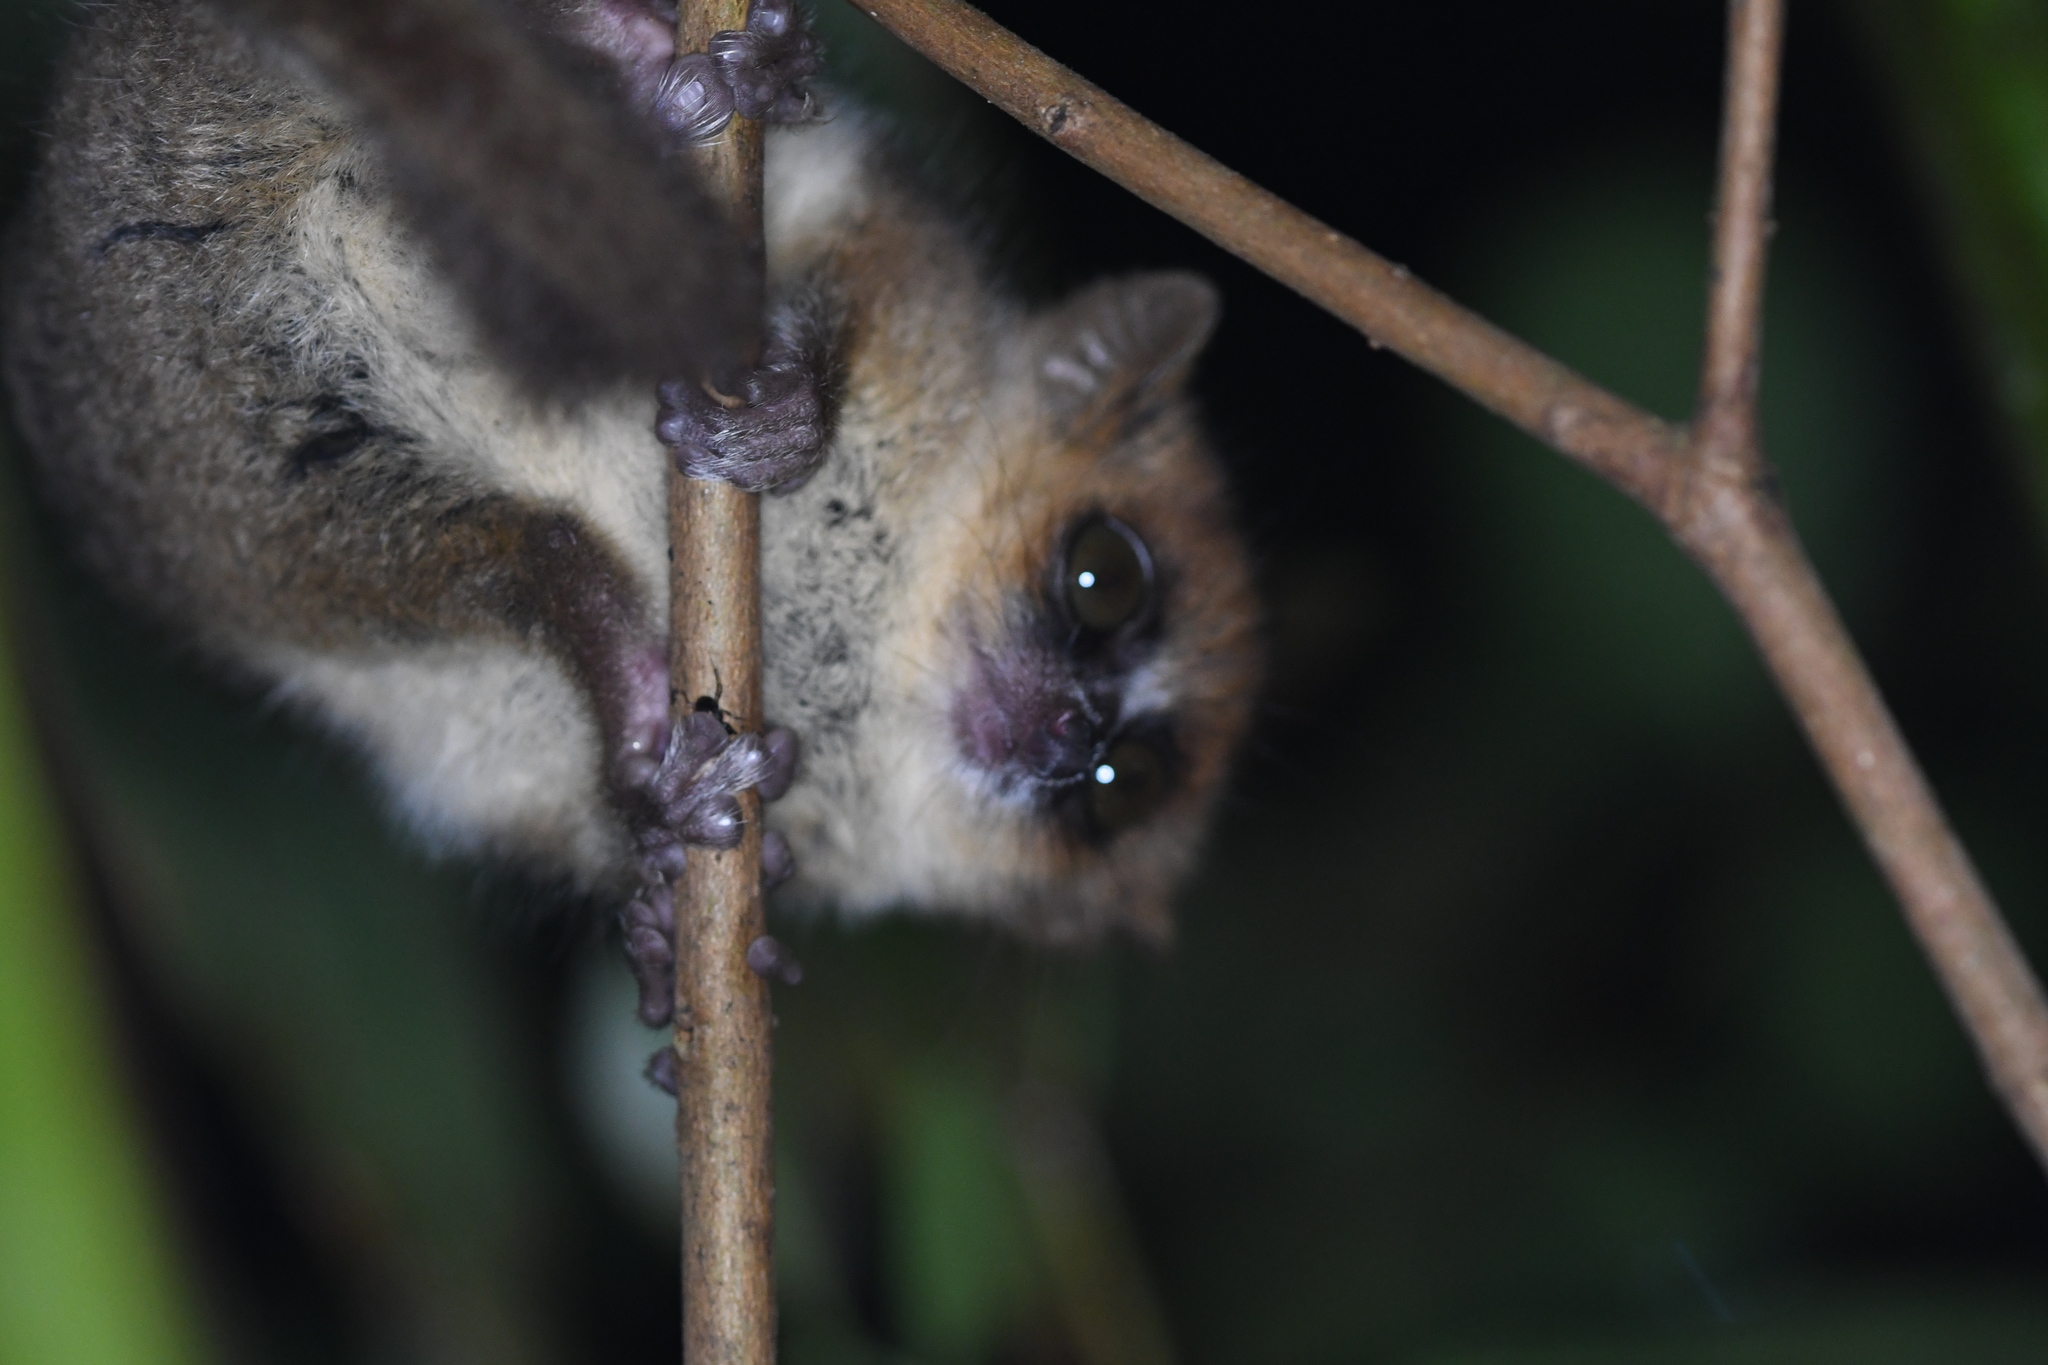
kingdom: Animalia
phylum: Chordata
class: Mammalia
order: Primates
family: Cheirogaleidae
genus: Microcebus
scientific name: Microcebus rufus
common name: Brown mouse lemur
